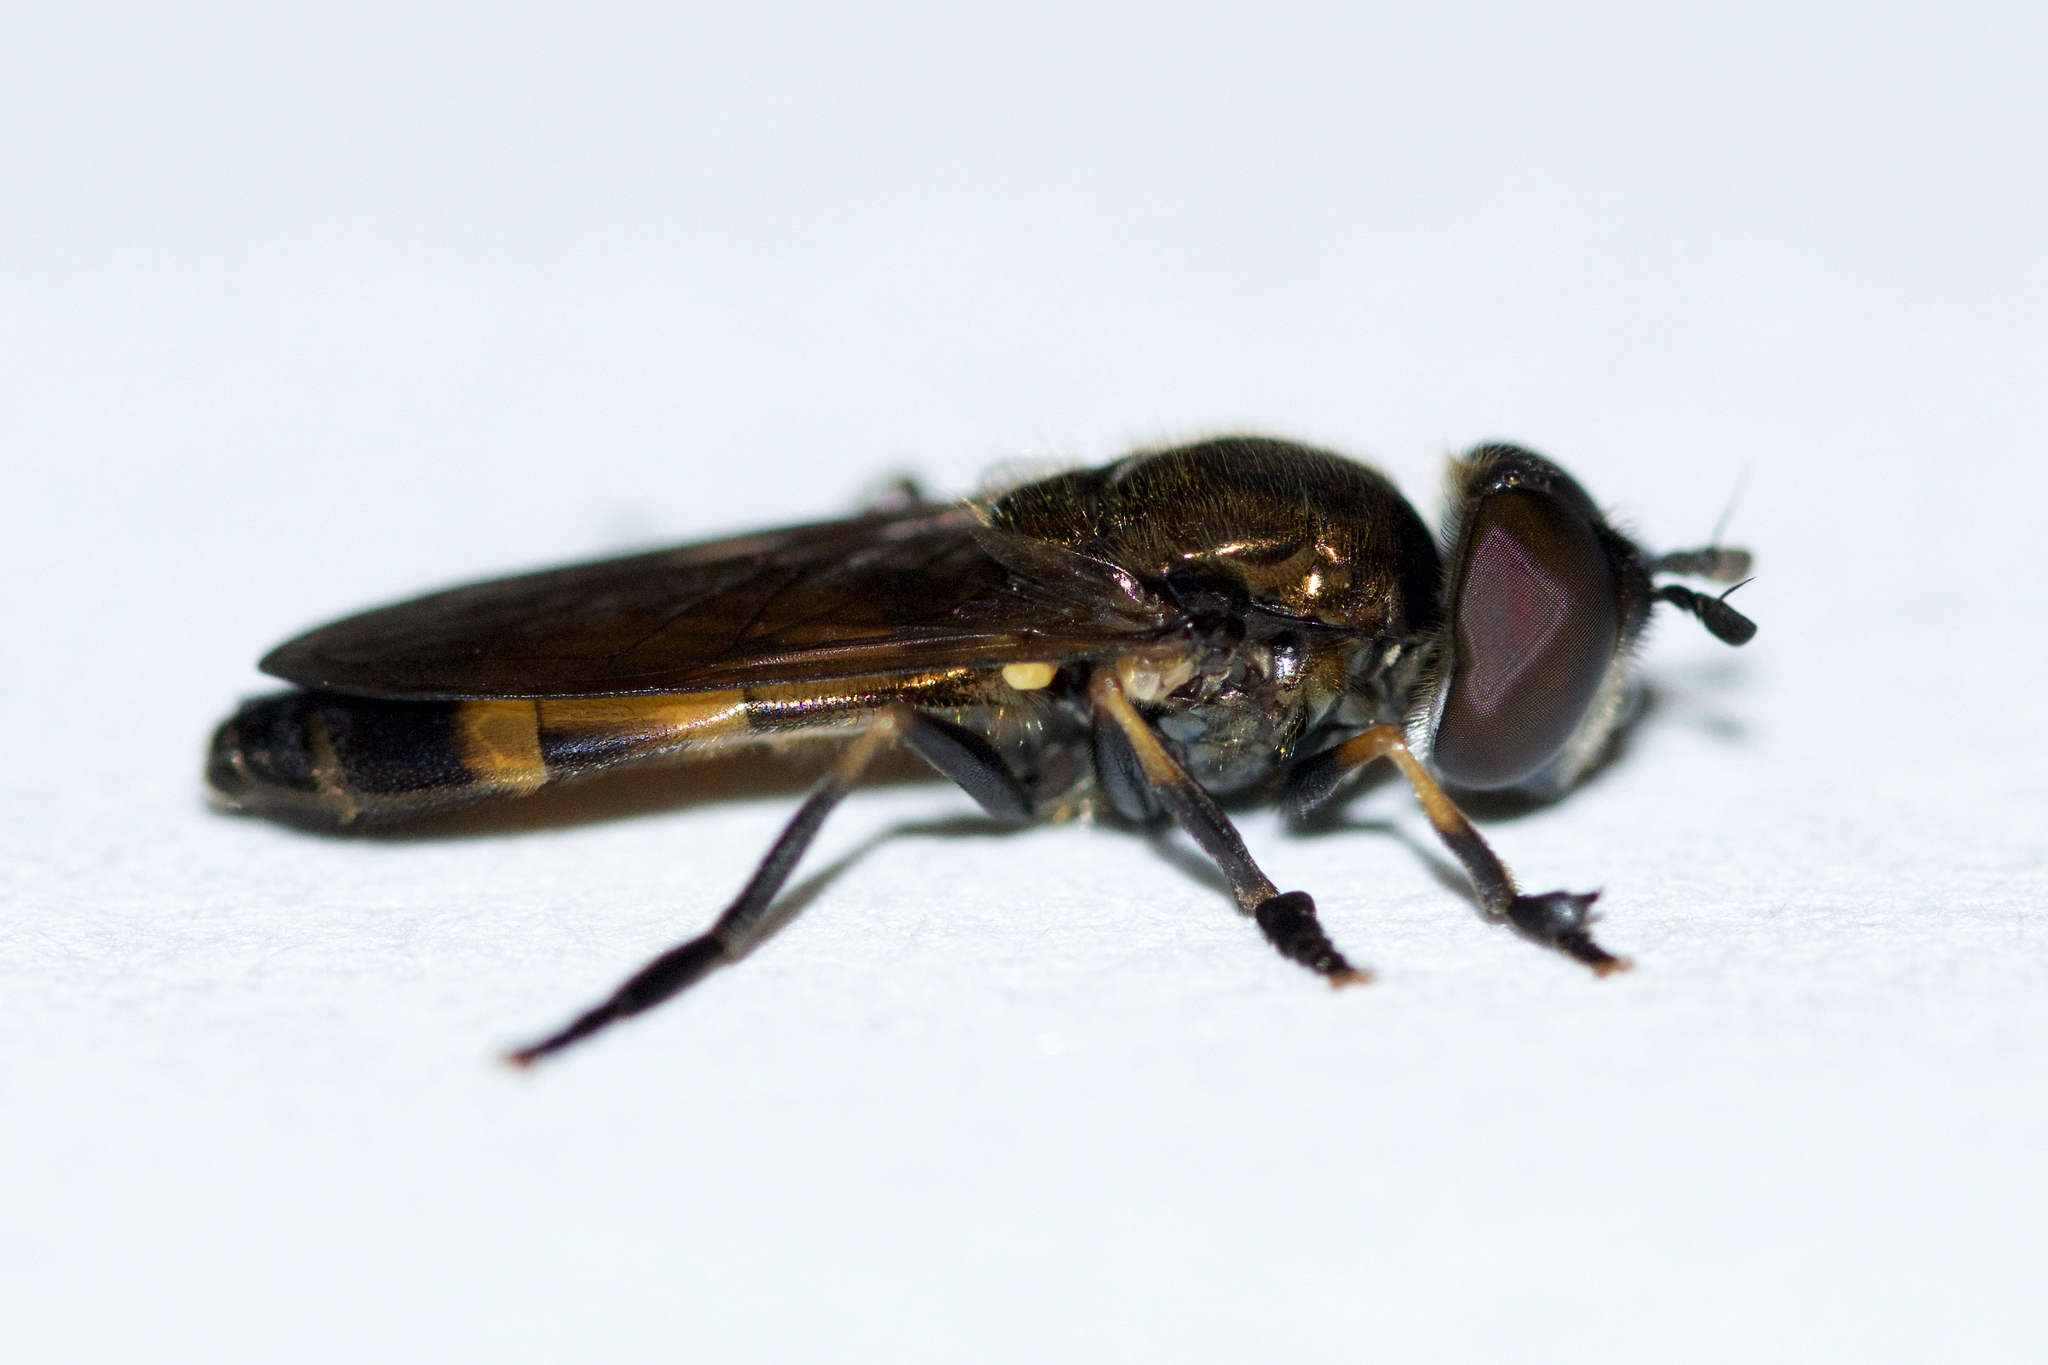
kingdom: Animalia
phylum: Arthropoda
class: Insecta
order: Diptera
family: Syrphidae
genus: Pyrophaena
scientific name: Pyrophaena granditarsa
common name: Hornhand sedgesitter
